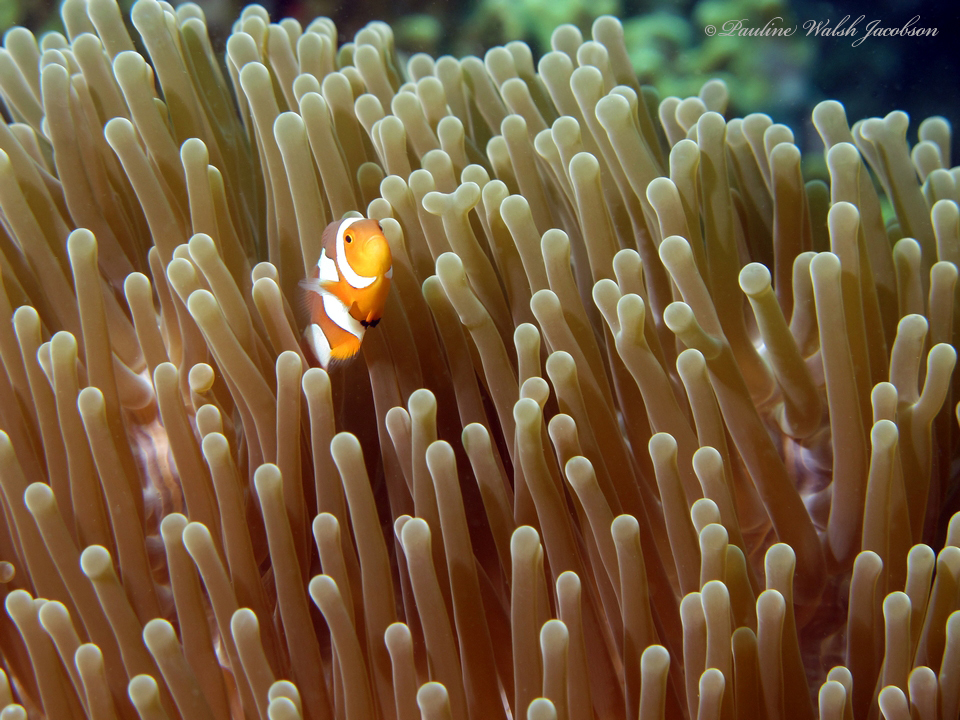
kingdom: Animalia
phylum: Chordata
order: Perciformes
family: Pomacentridae
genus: Amphiprion
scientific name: Amphiprion ocellaris
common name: Clown anemonefish
